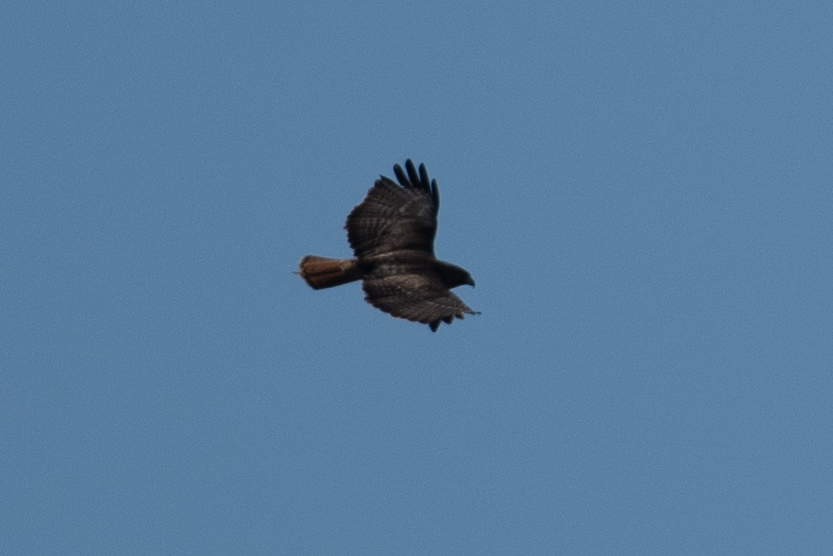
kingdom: Animalia
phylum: Chordata
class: Aves
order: Accipitriformes
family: Accipitridae
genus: Buteo
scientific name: Buteo jamaicensis
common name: Red-tailed hawk
